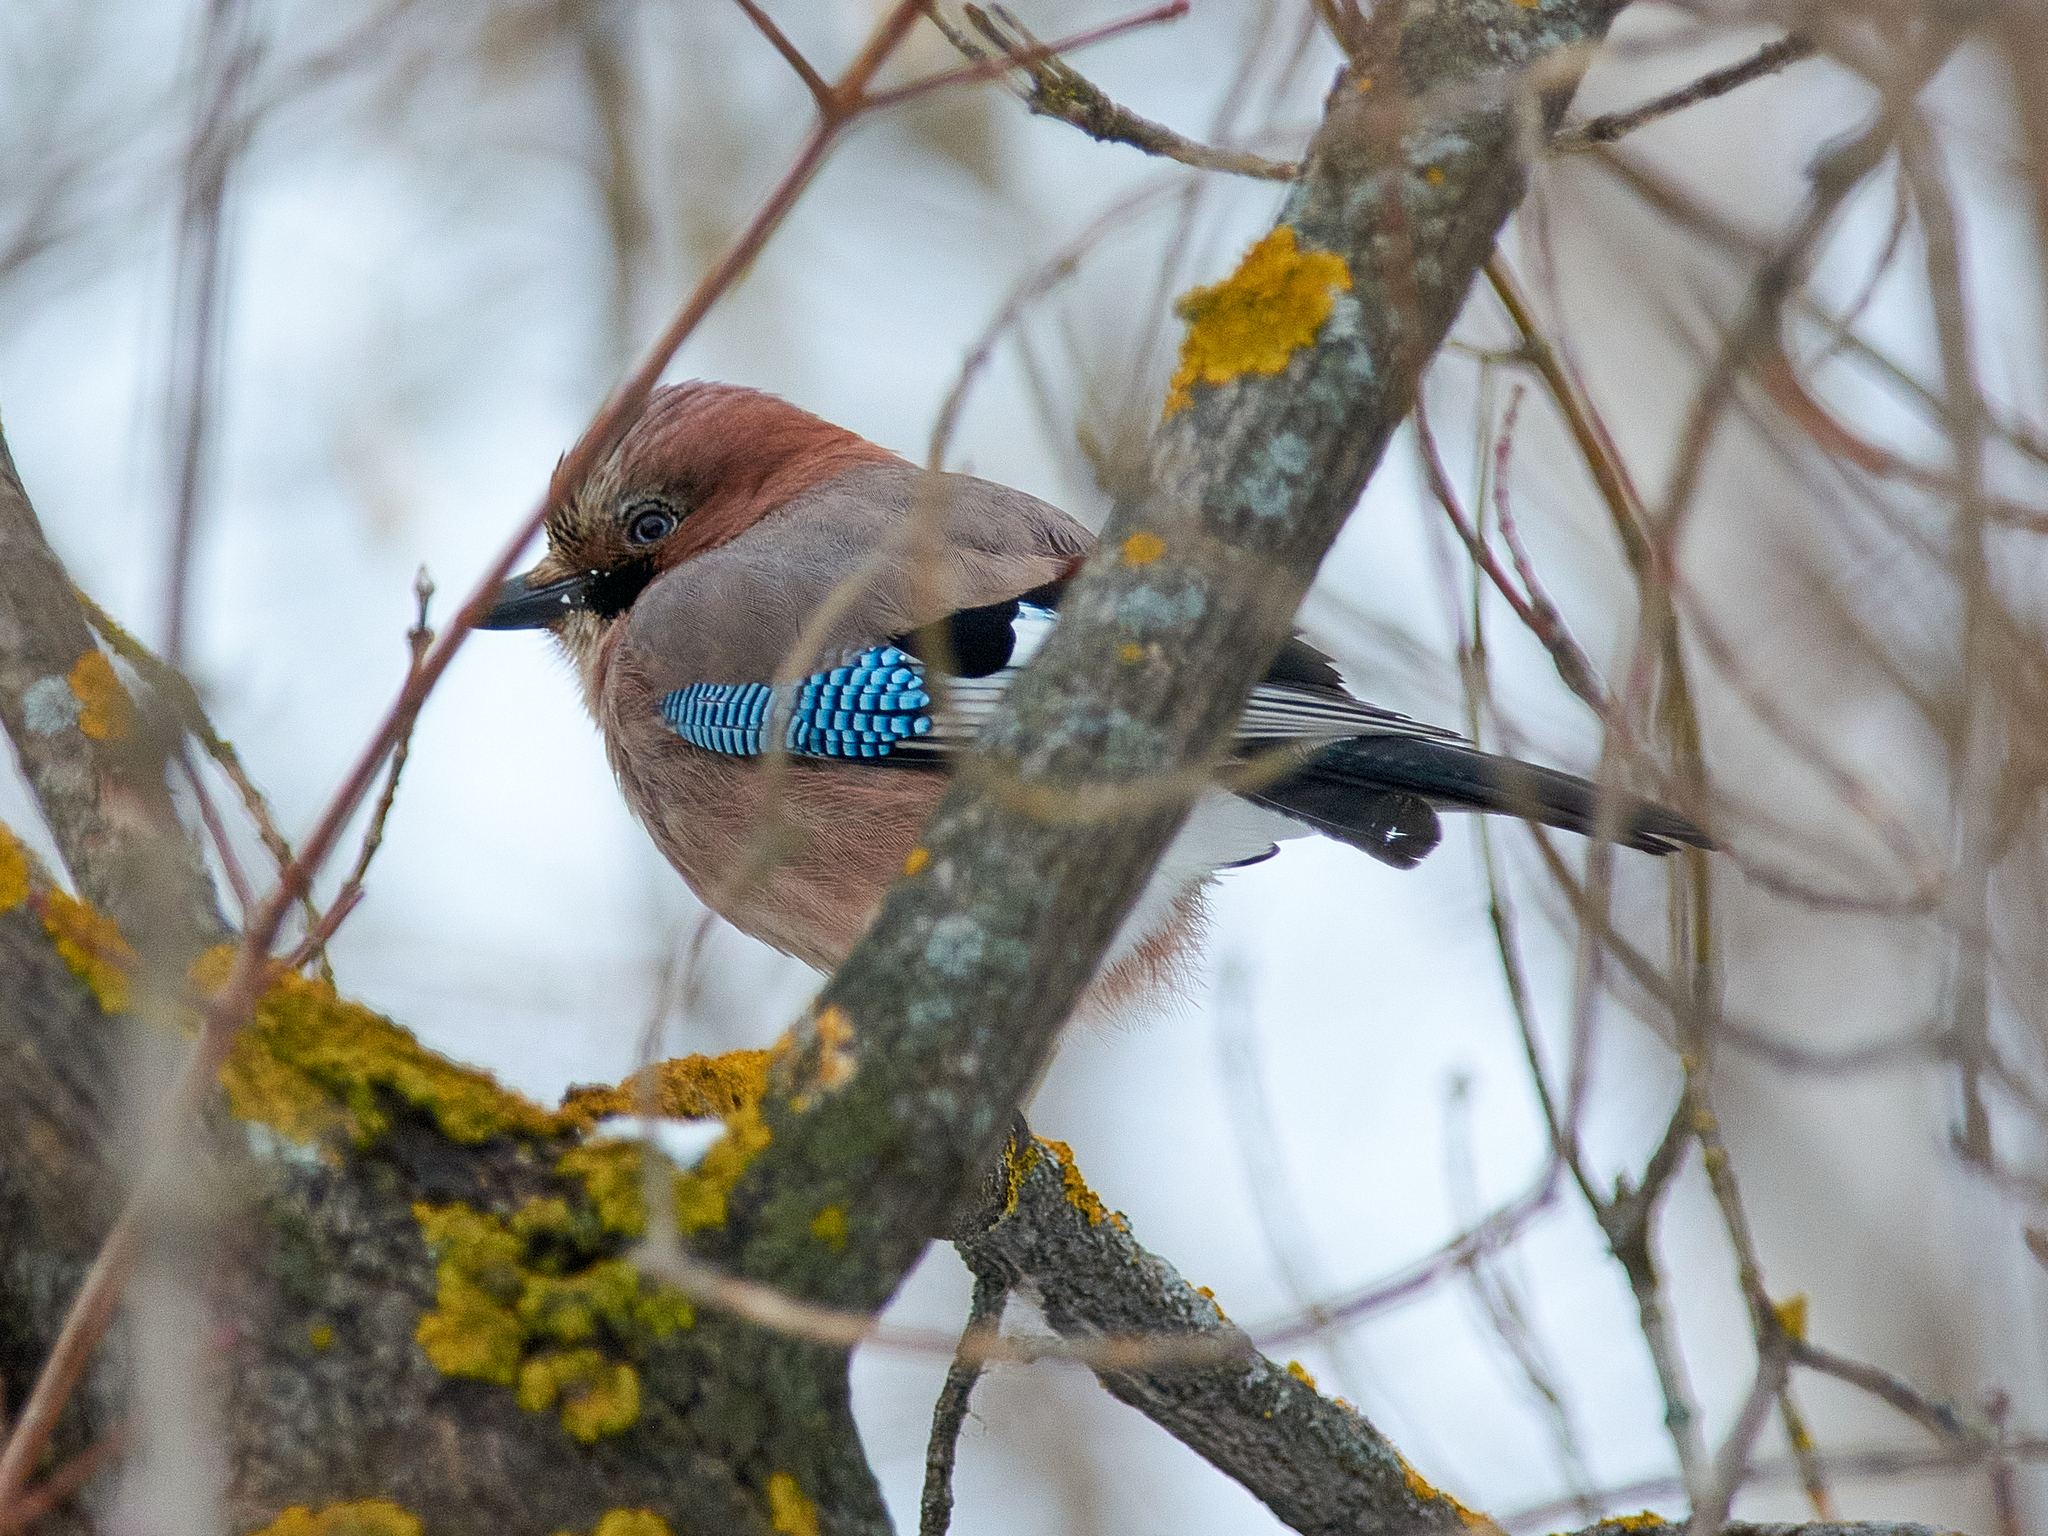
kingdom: Animalia
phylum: Chordata
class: Aves
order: Passeriformes
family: Corvidae
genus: Garrulus
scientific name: Garrulus glandarius
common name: Eurasian jay
